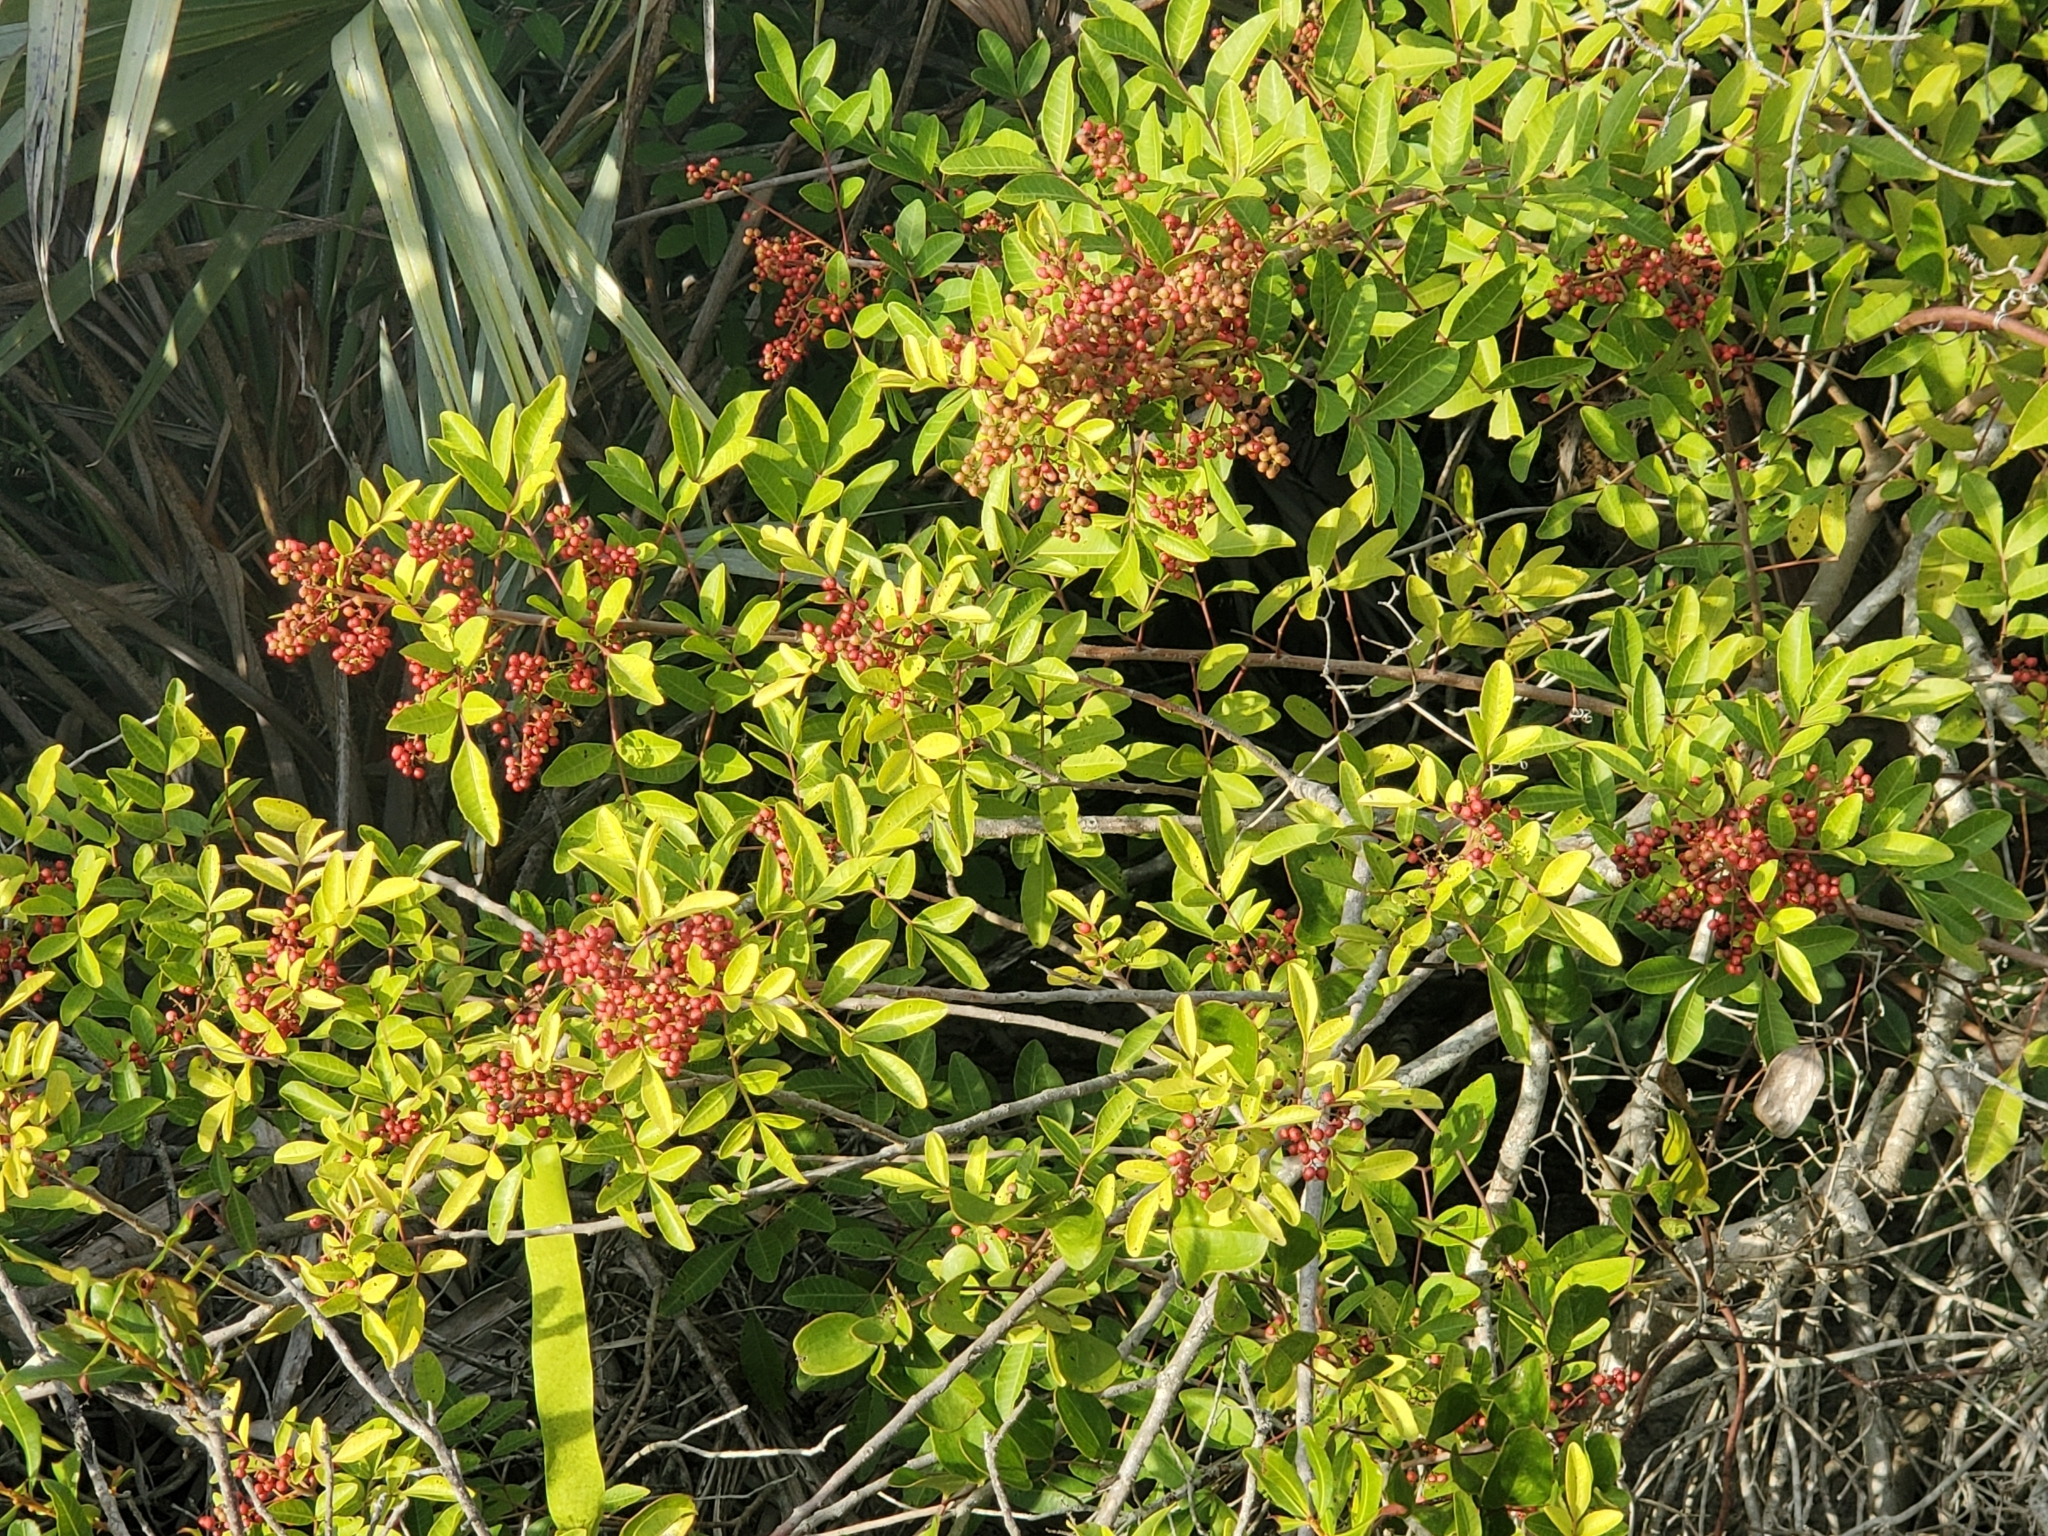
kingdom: Plantae
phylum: Tracheophyta
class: Magnoliopsida
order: Sapindales
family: Anacardiaceae
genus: Schinus
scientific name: Schinus terebinthifolia
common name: Brazilian peppertree
